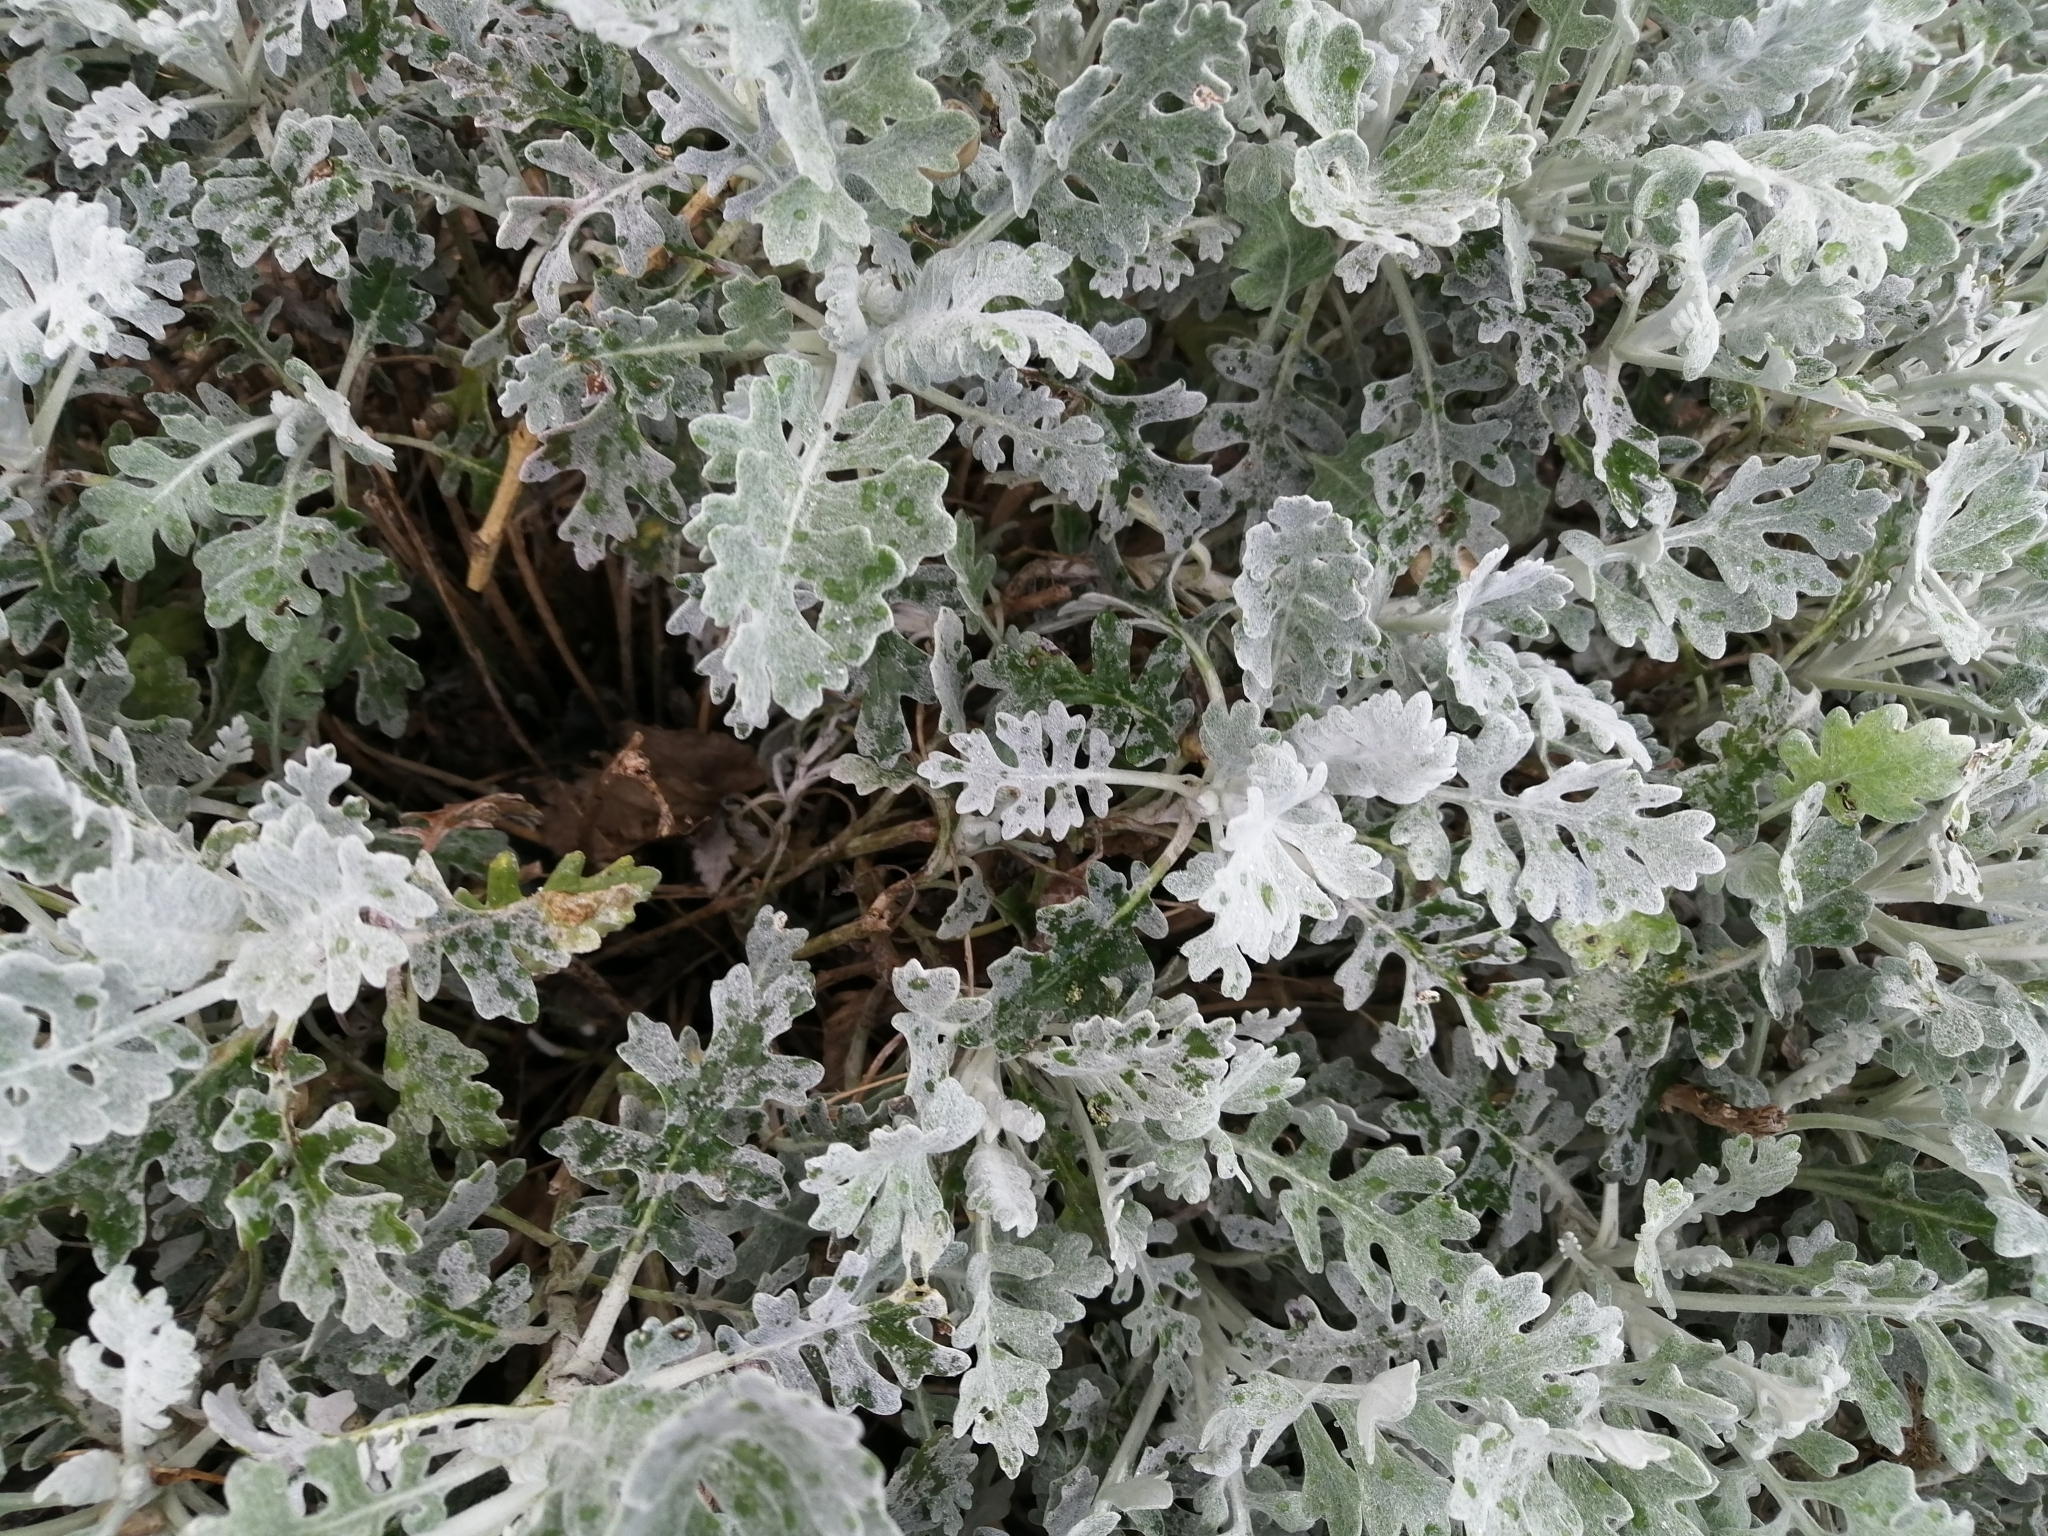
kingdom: Plantae
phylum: Tracheophyta
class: Magnoliopsida
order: Asterales
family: Asteraceae
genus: Jacobaea
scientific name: Jacobaea maritima
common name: Silver ragwort
